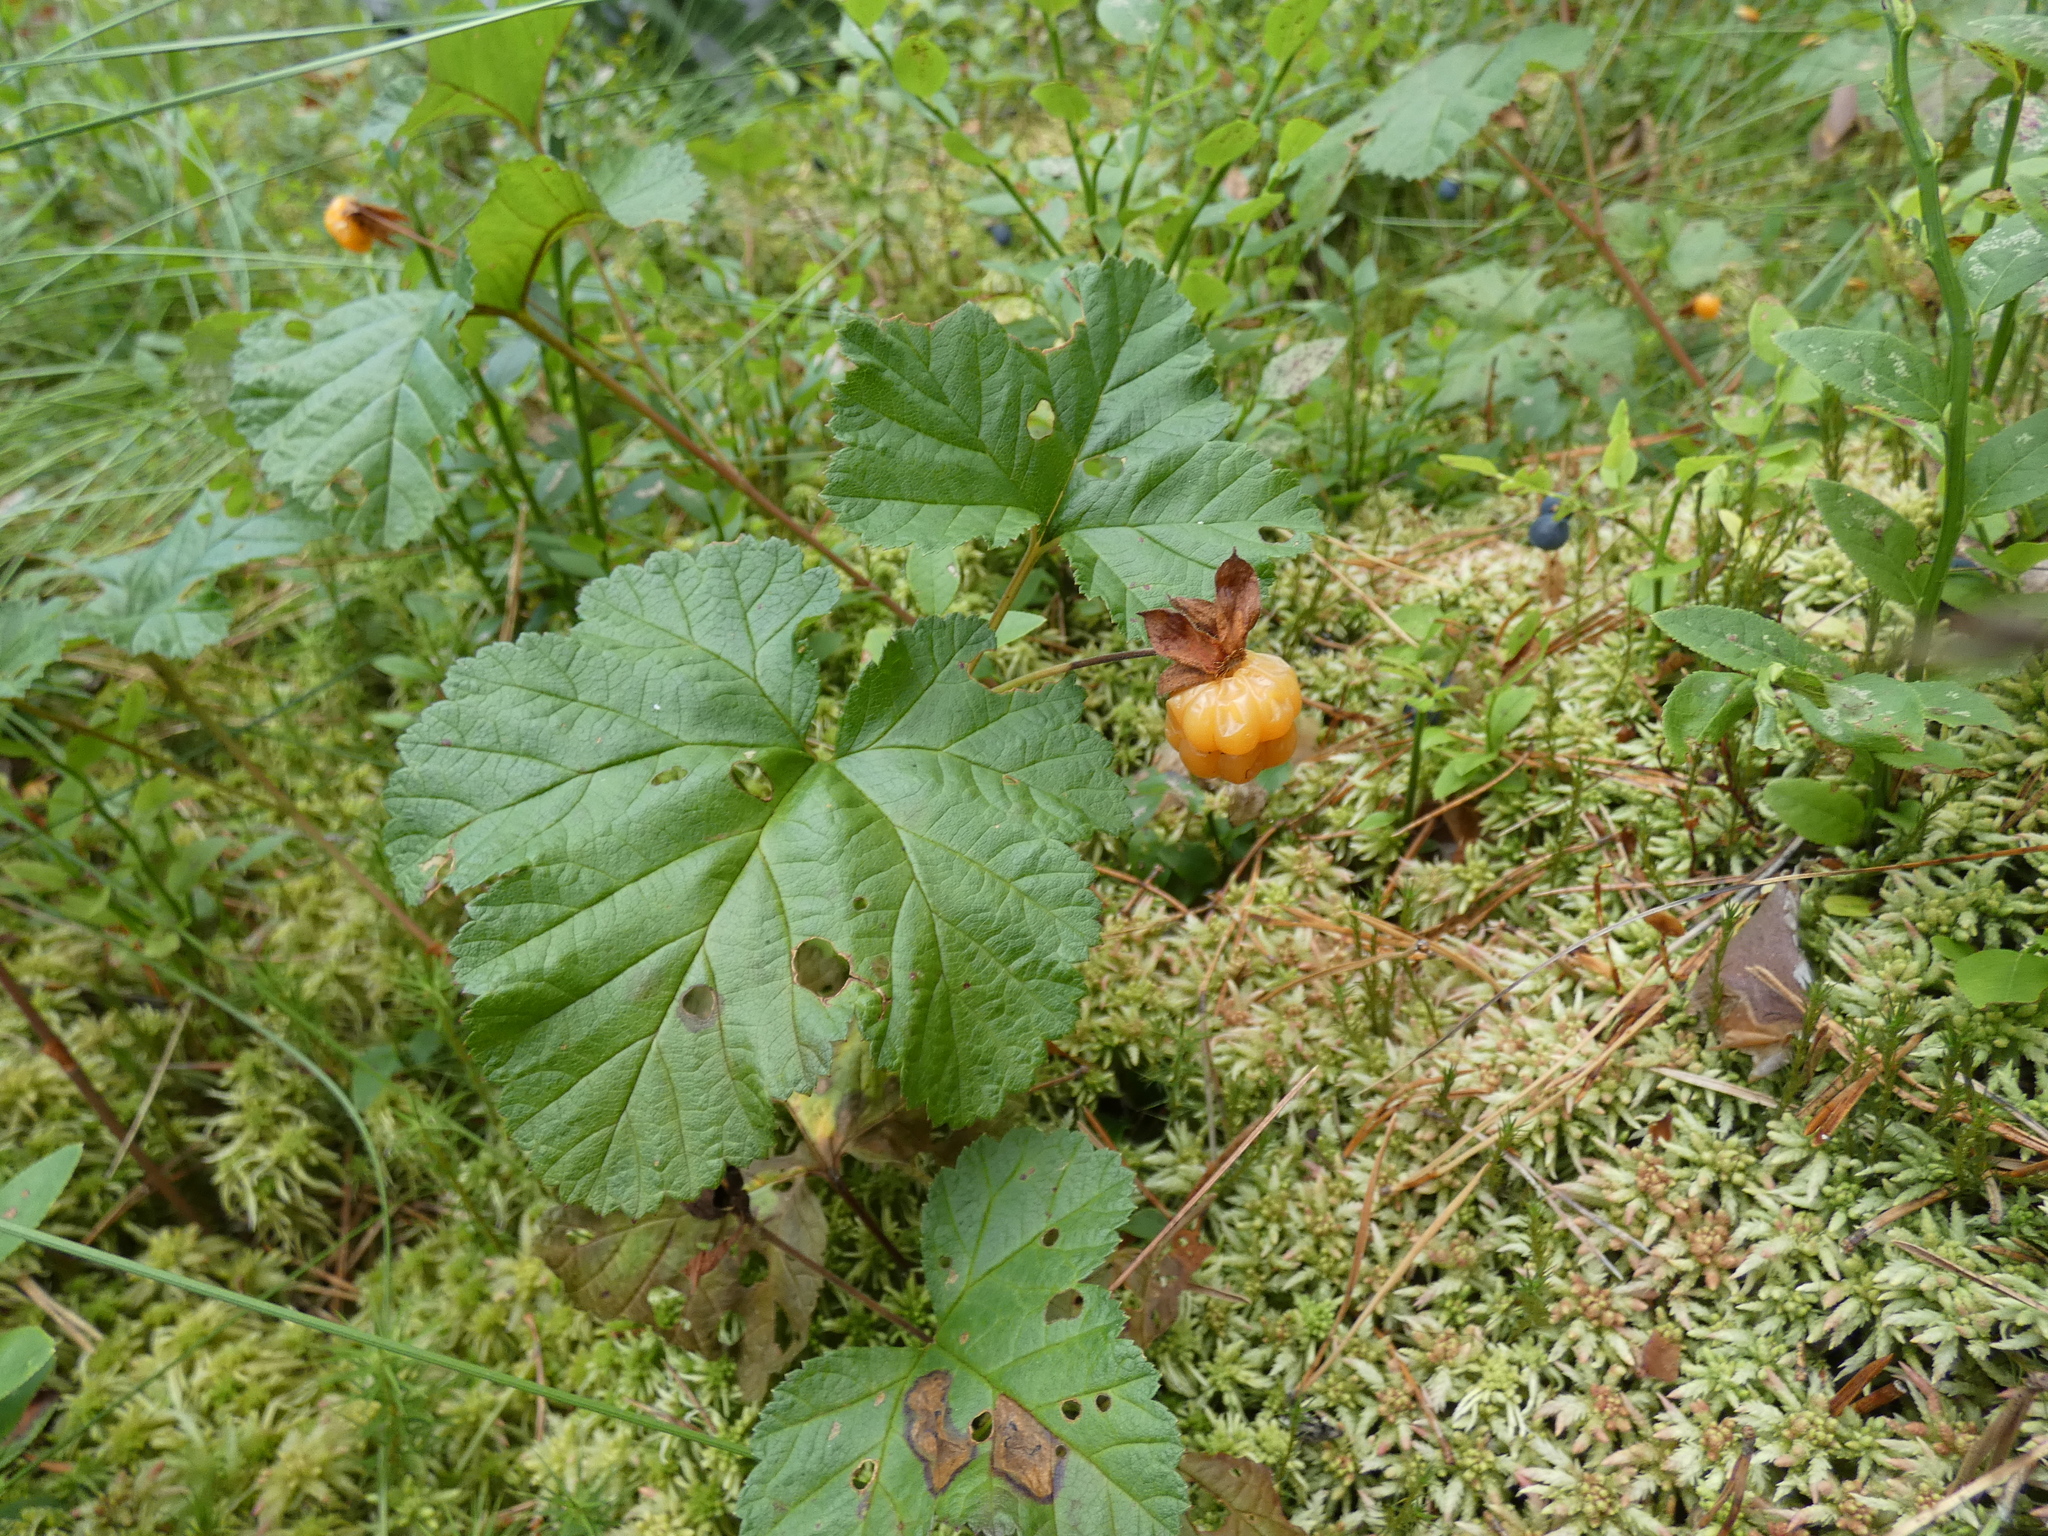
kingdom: Plantae
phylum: Tracheophyta
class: Magnoliopsida
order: Rosales
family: Rosaceae
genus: Rubus
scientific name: Rubus chamaemorus
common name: Cloudberry
